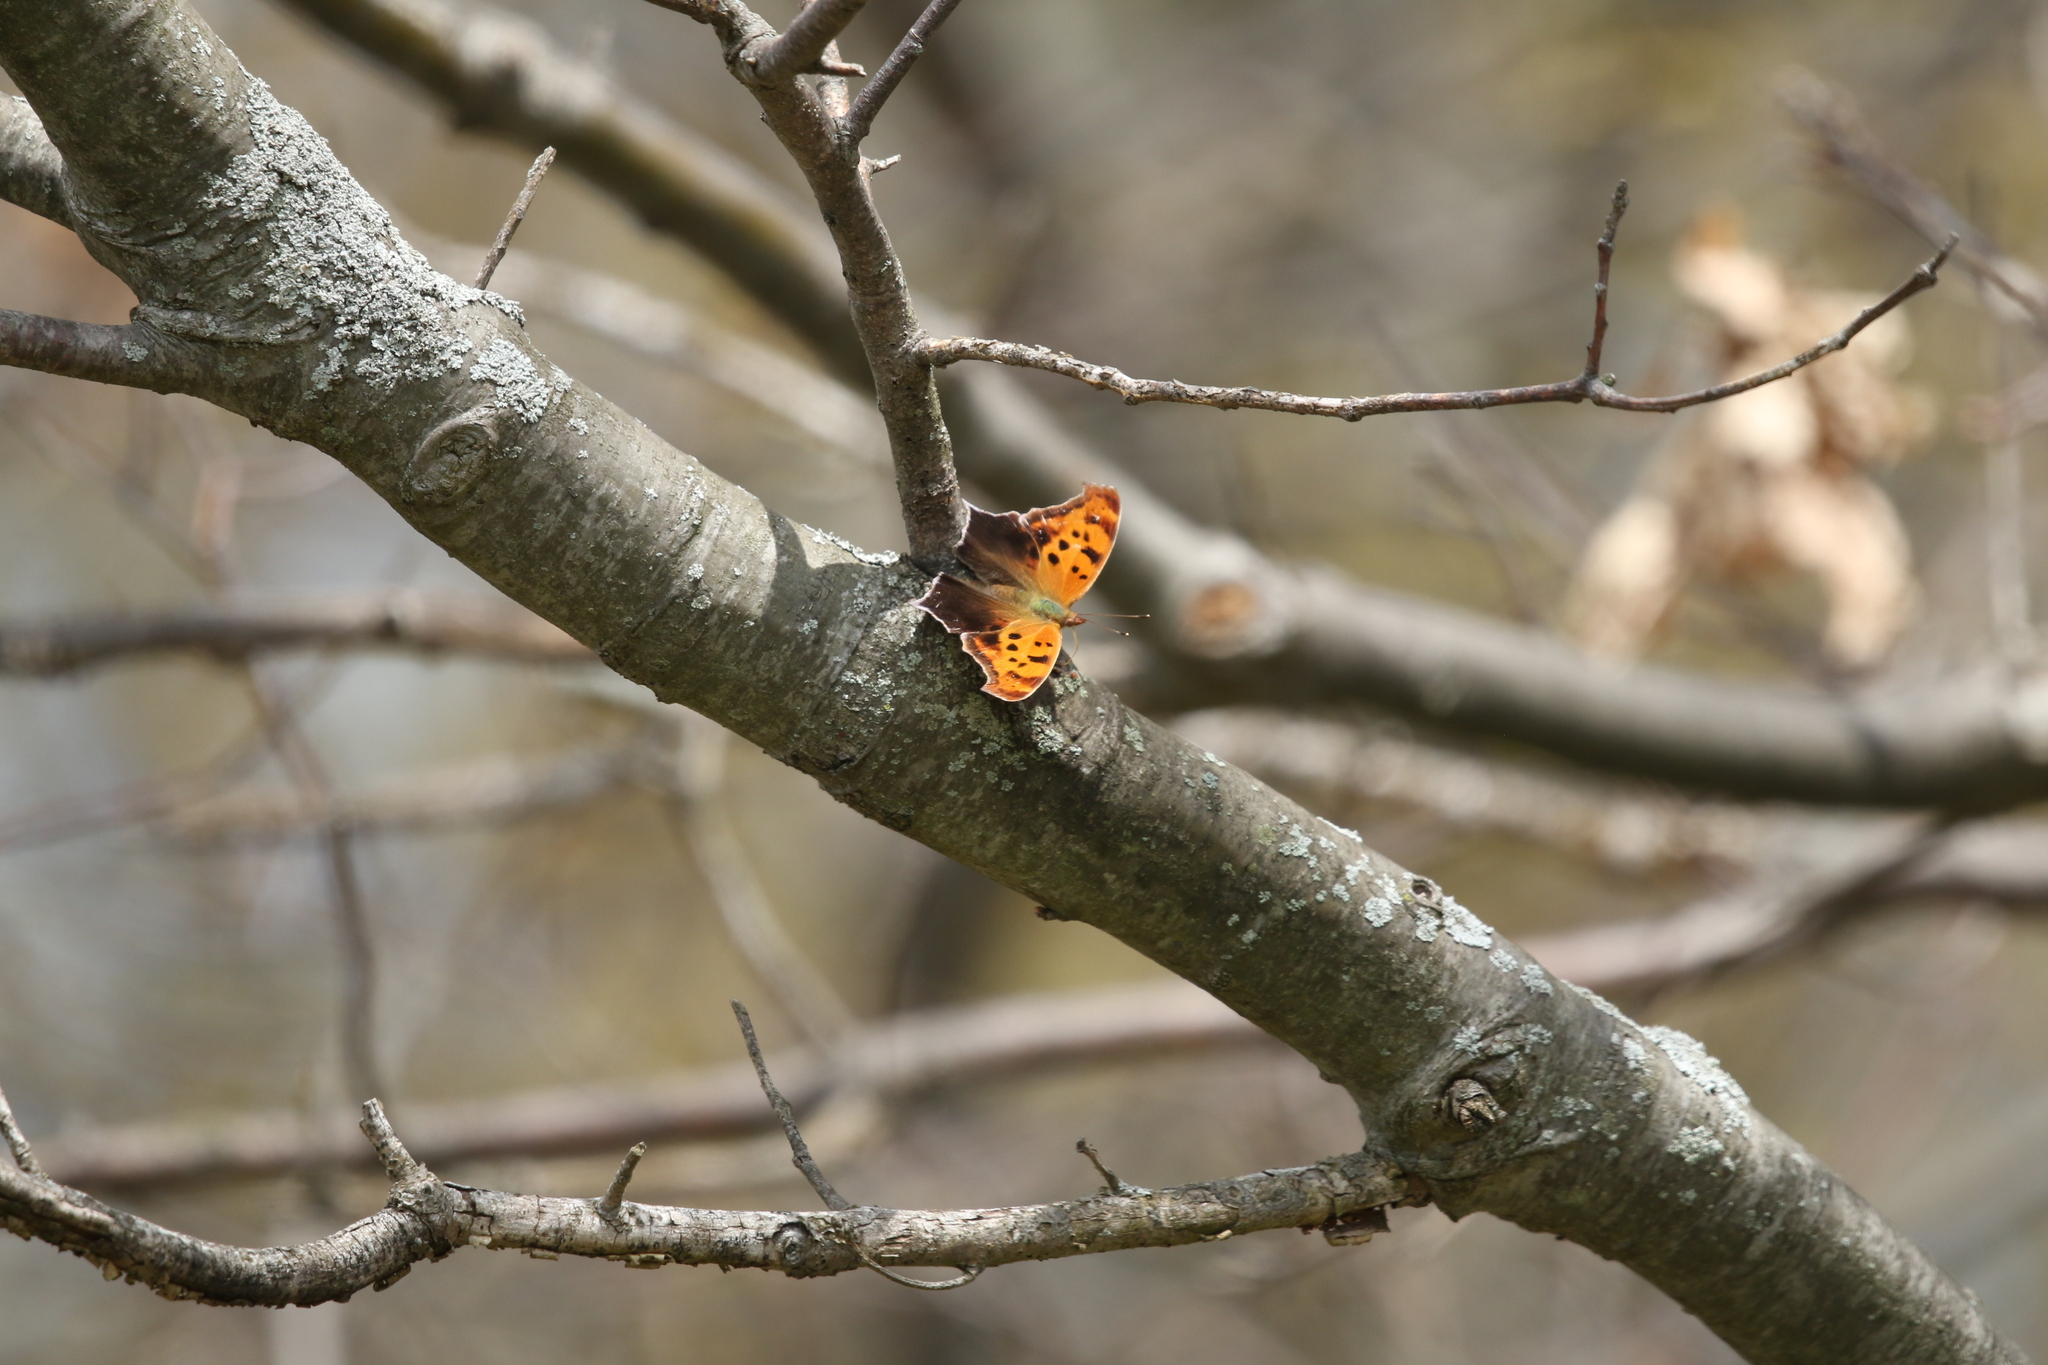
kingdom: Animalia
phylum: Arthropoda
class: Insecta
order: Lepidoptera
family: Nymphalidae
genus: Polygonia
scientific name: Polygonia interrogationis
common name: Question mark
